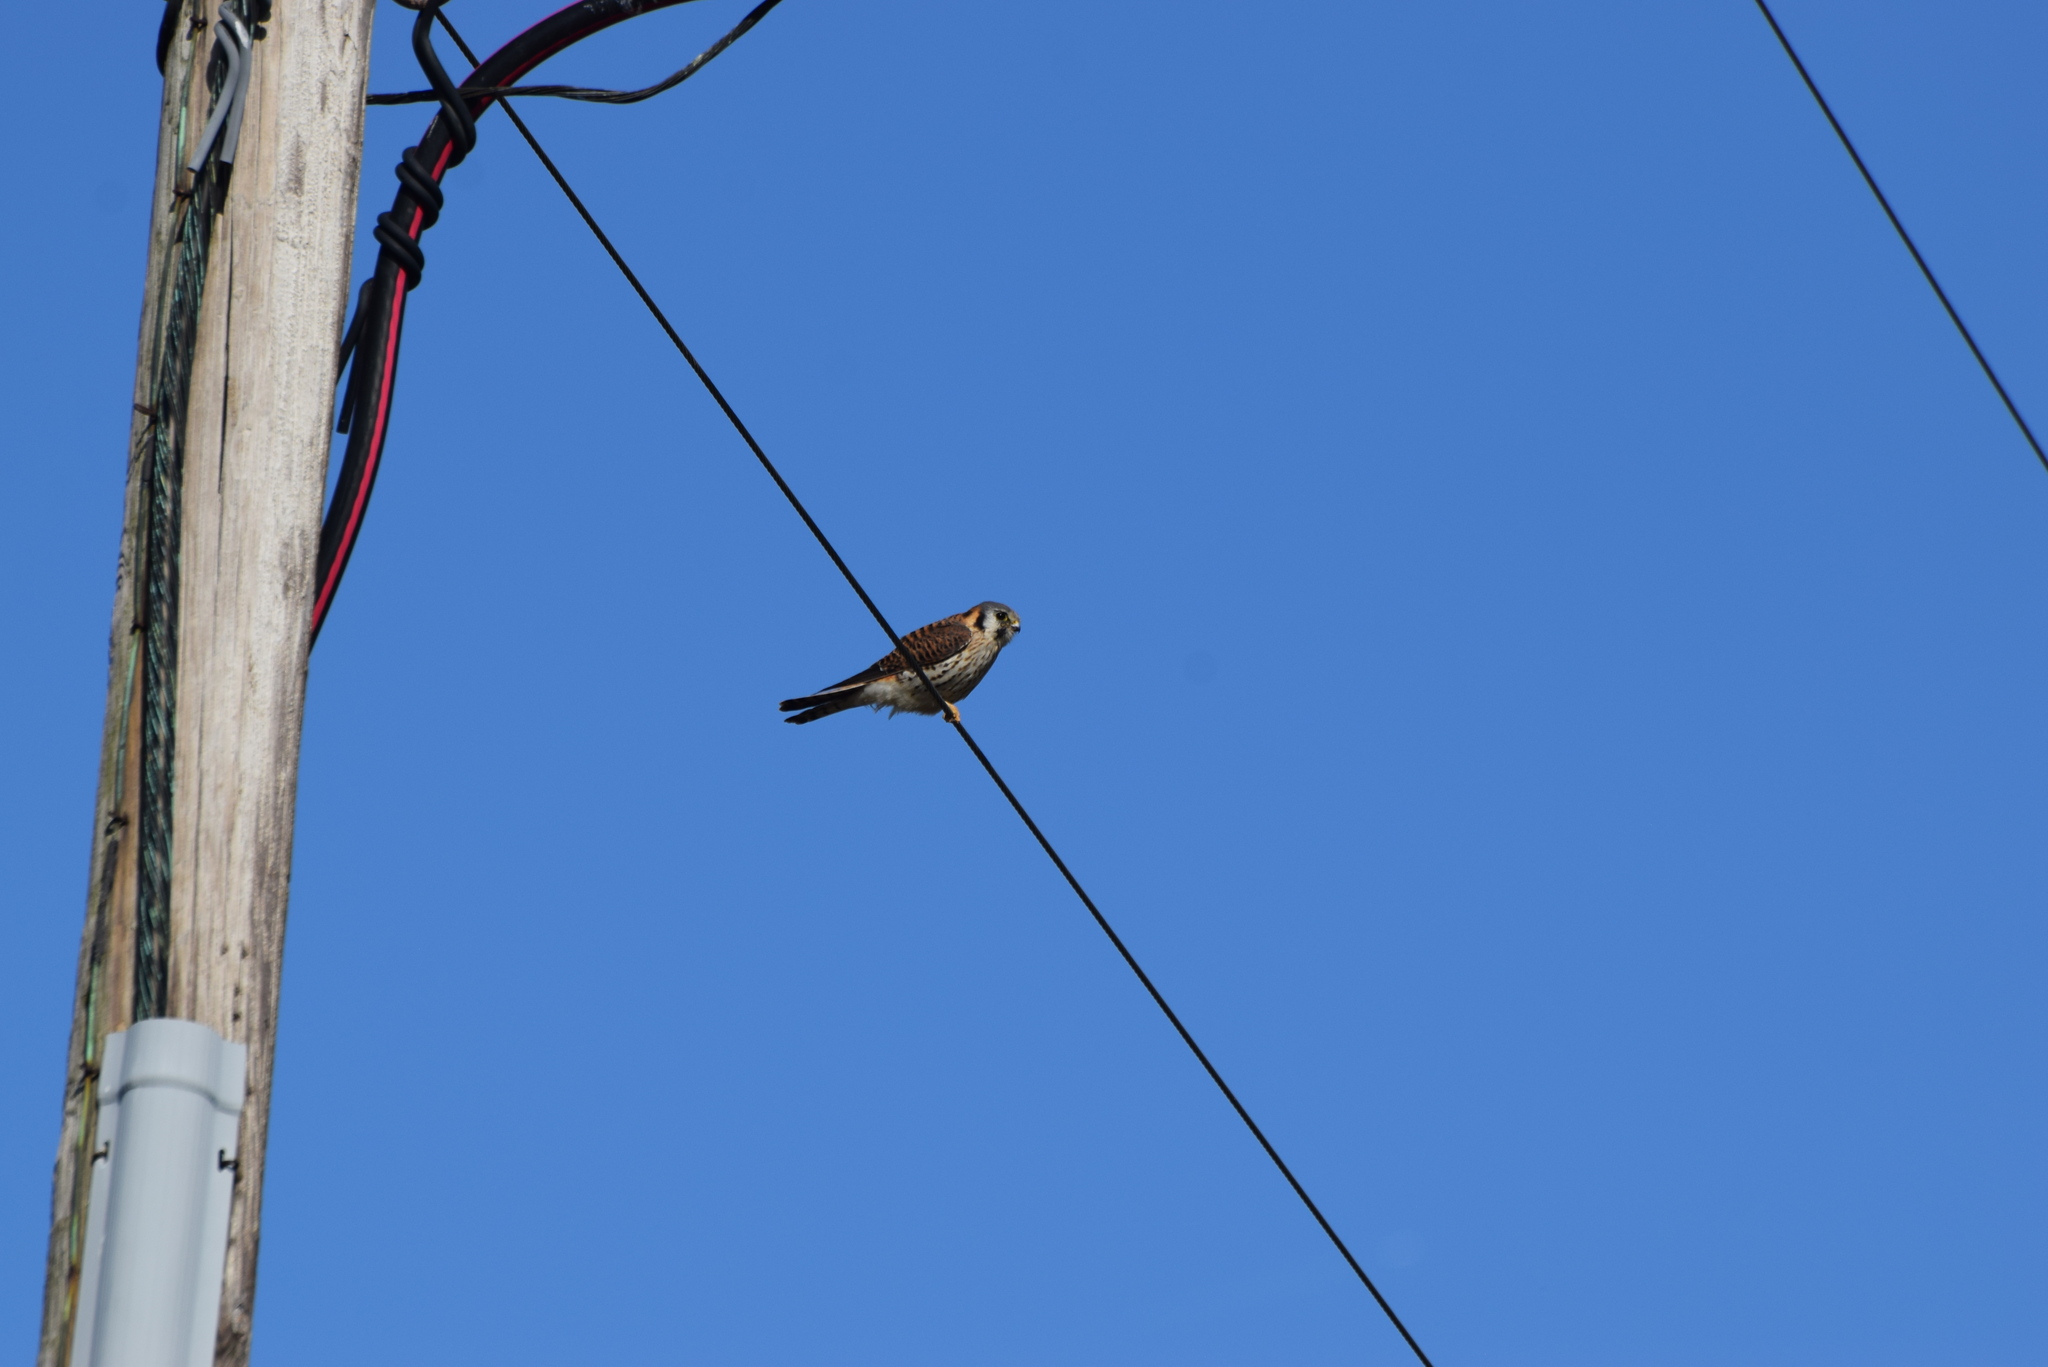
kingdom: Animalia
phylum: Chordata
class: Aves
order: Falconiformes
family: Falconidae
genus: Falco
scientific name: Falco sparverius
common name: American kestrel
